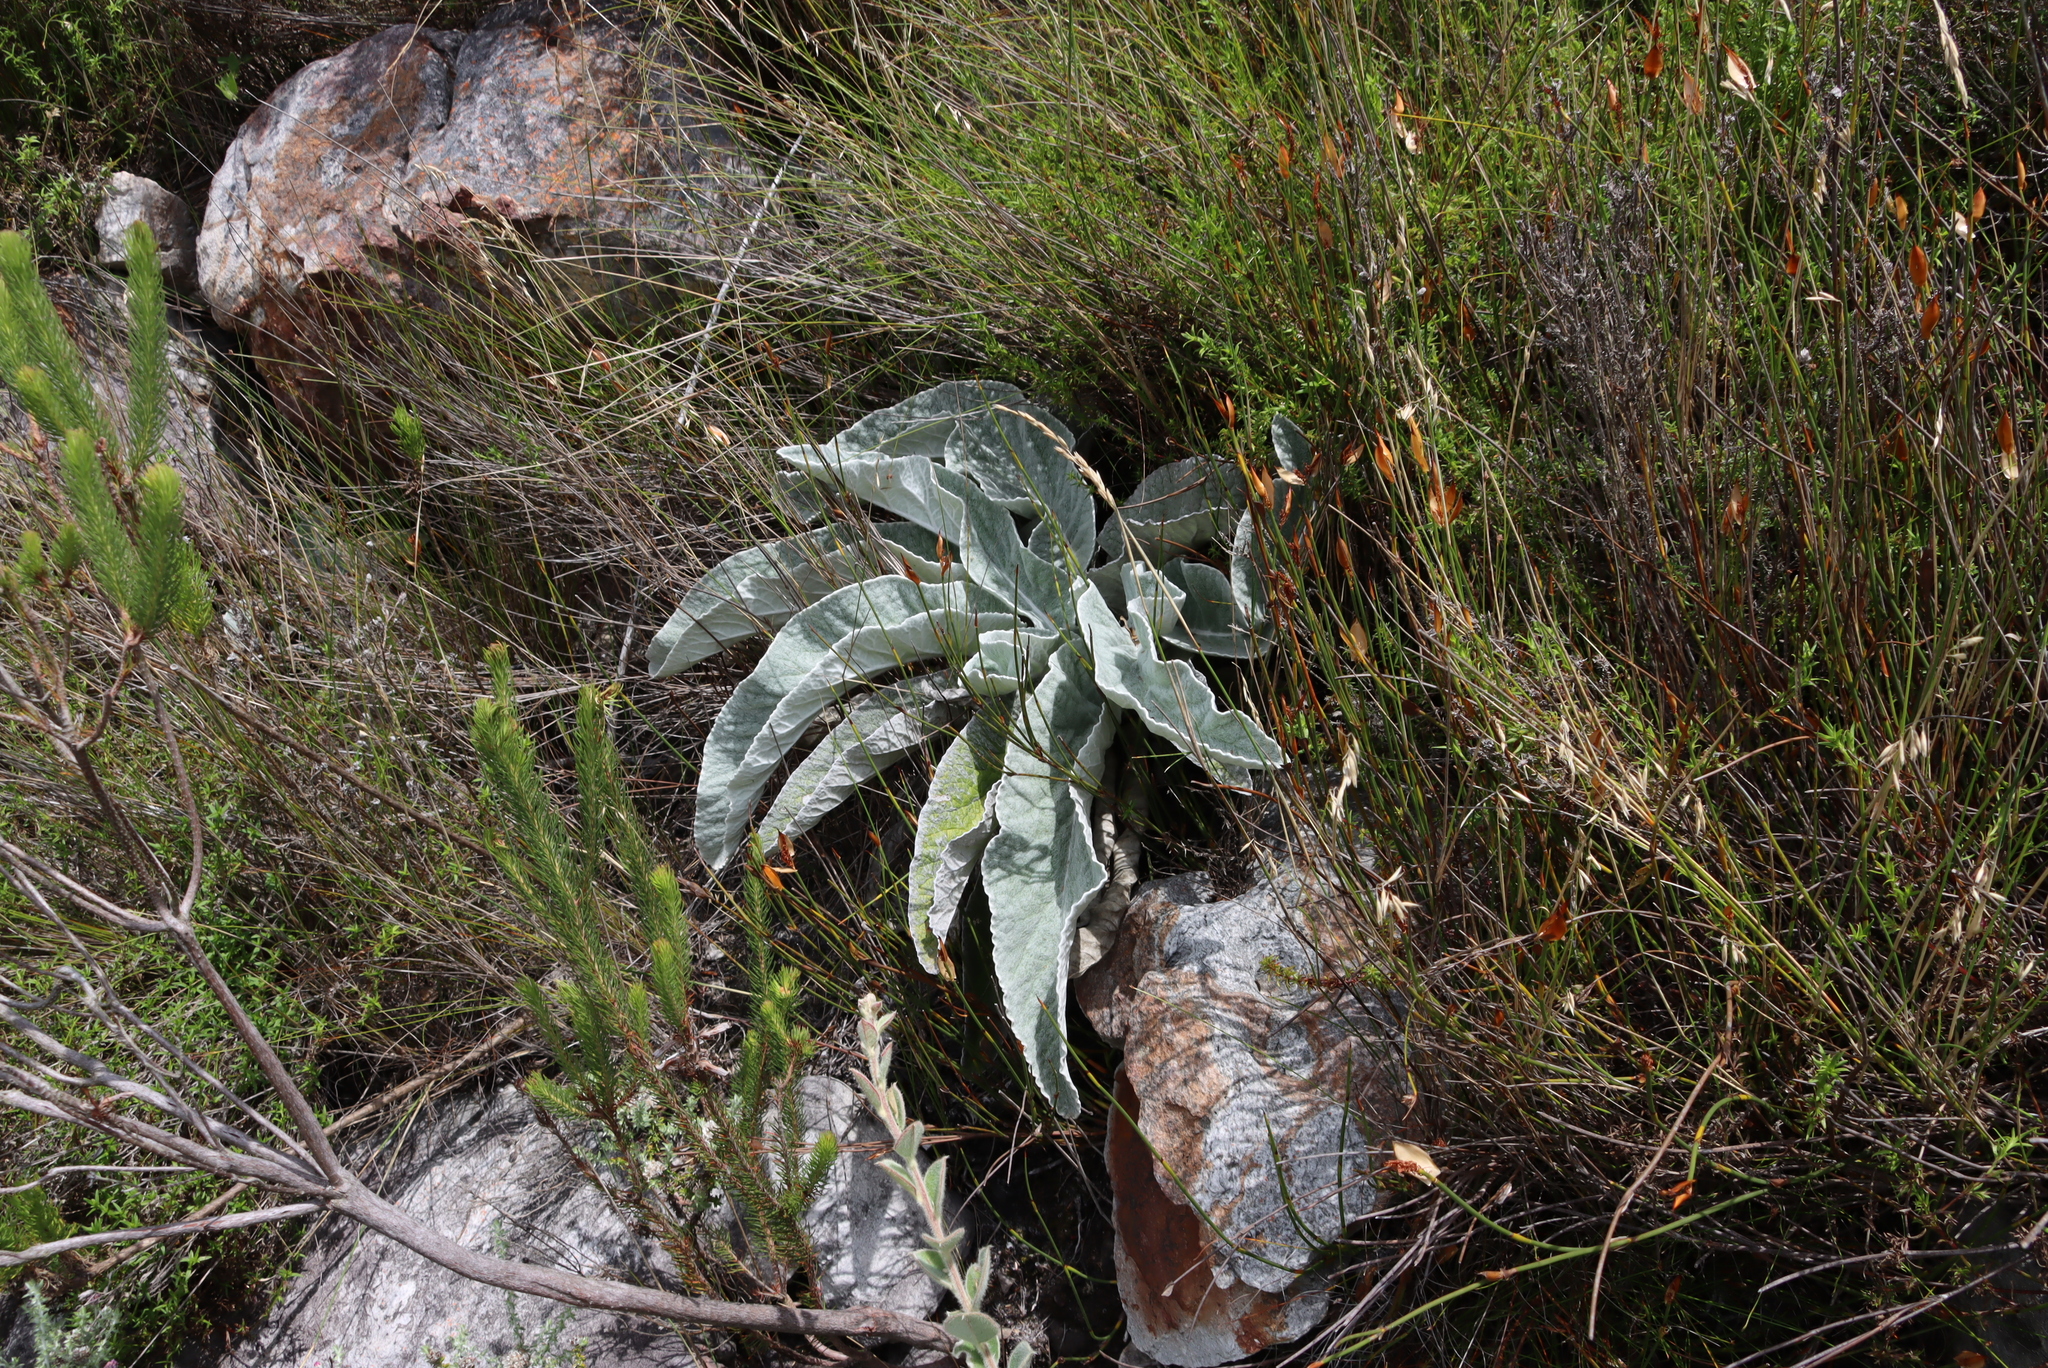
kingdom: Plantae
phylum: Tracheophyta
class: Magnoliopsida
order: Apiales
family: Apiaceae
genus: Hermas
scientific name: Hermas gigantea
